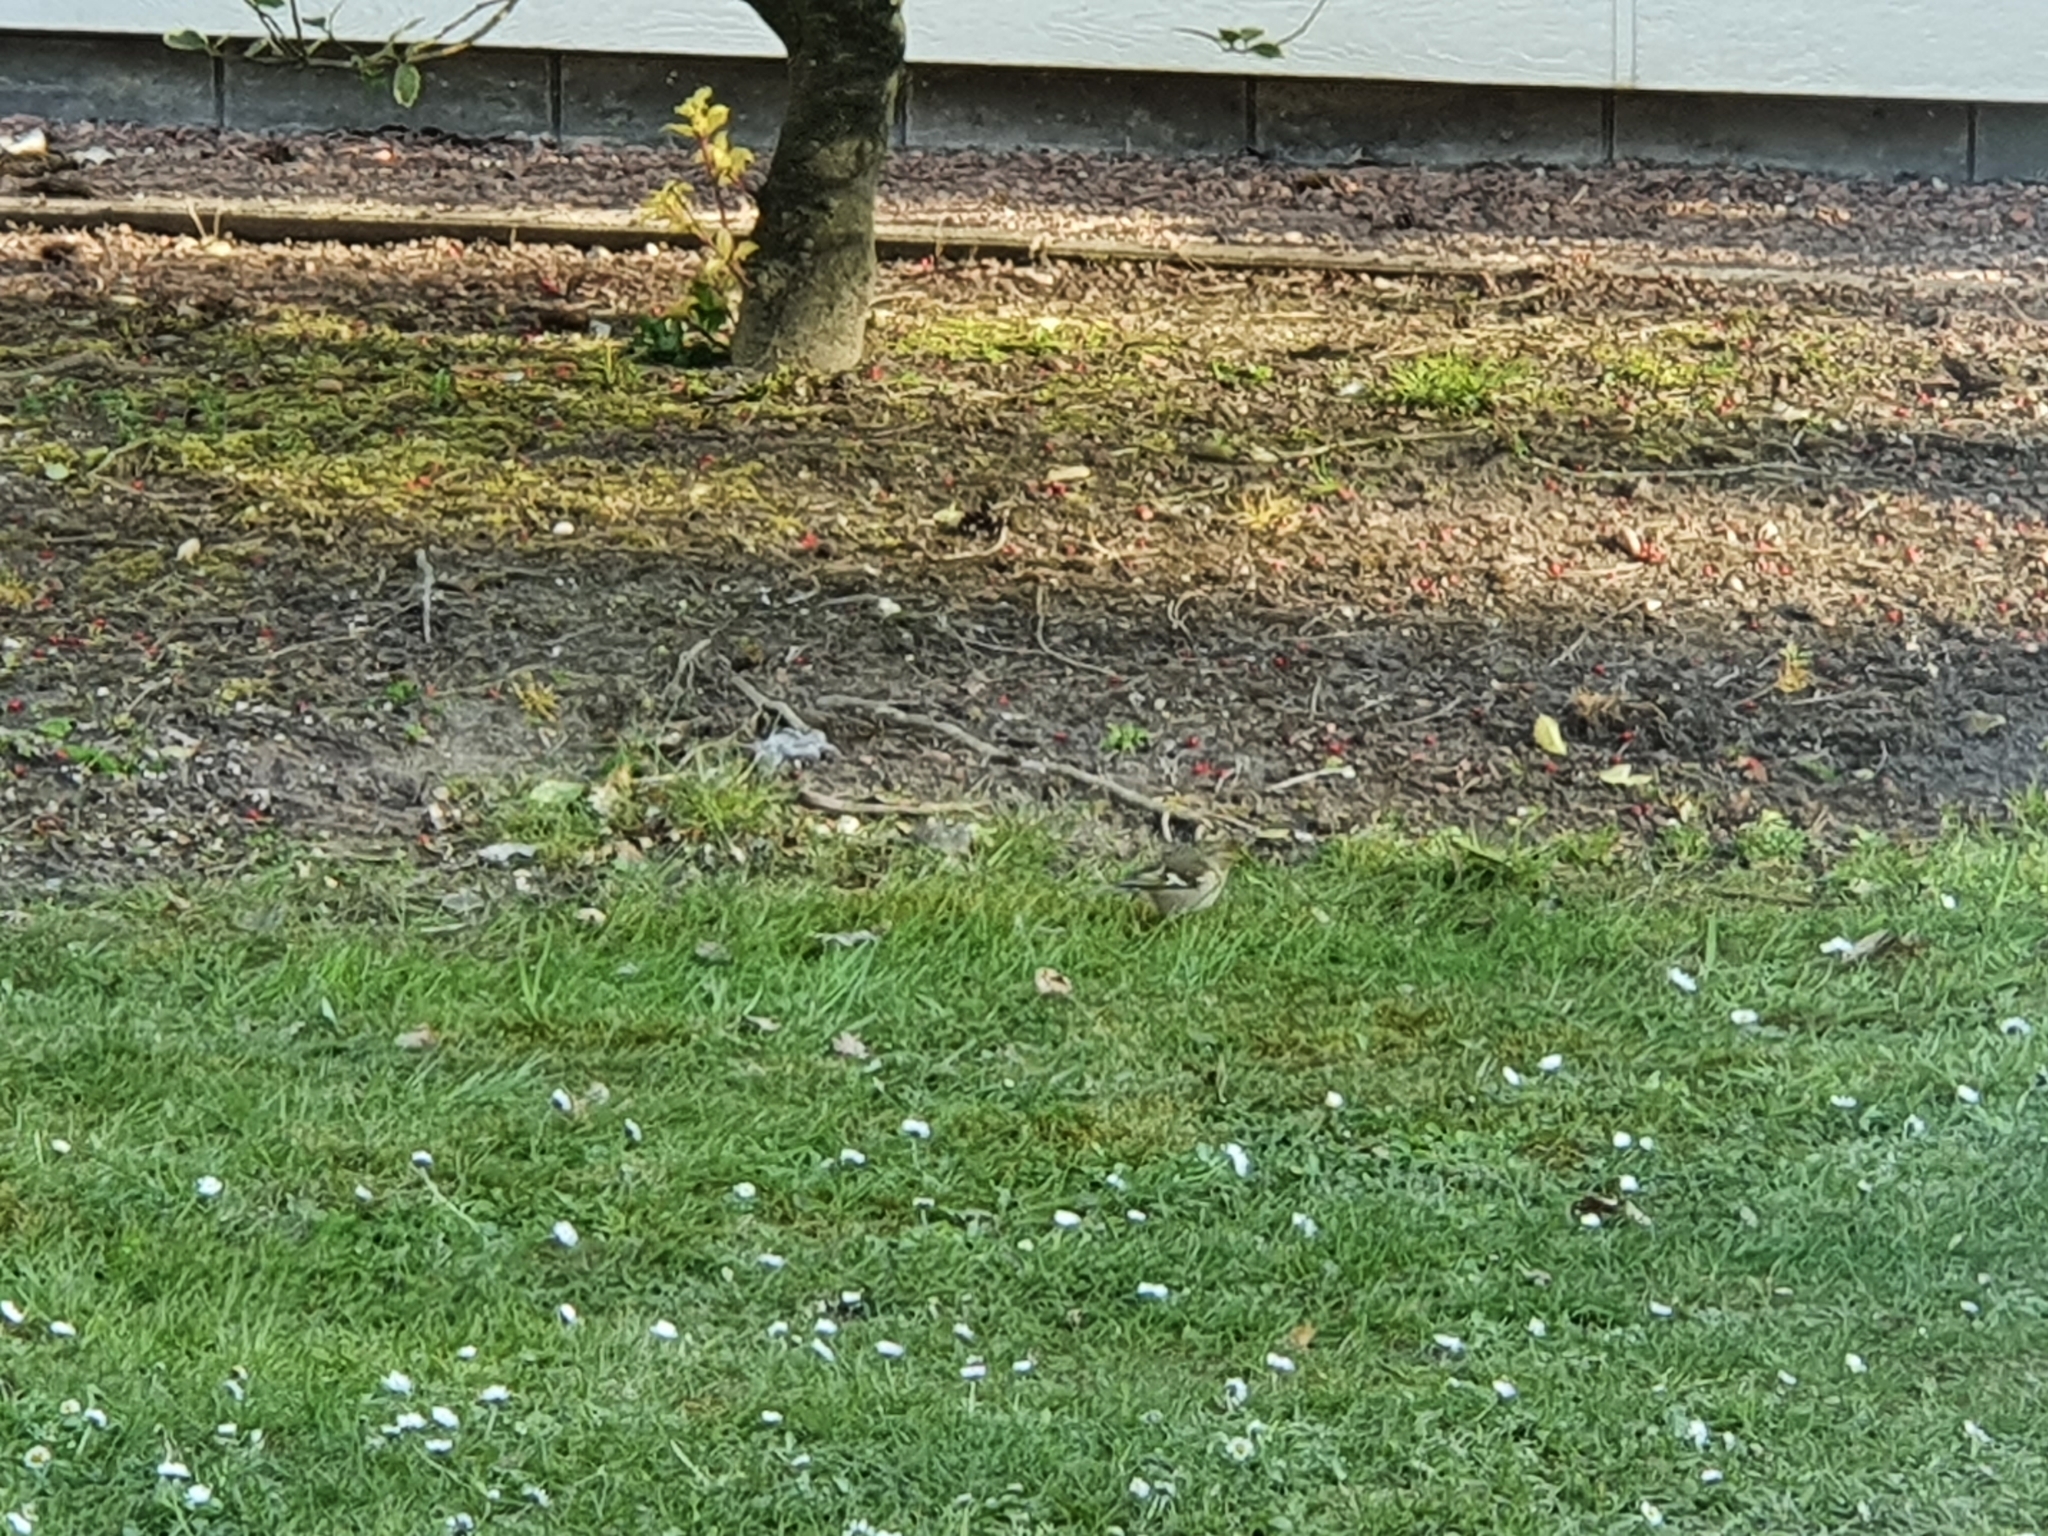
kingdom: Animalia
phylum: Chordata
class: Aves
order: Passeriformes
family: Fringillidae
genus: Fringilla
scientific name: Fringilla coelebs
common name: Common chaffinch
